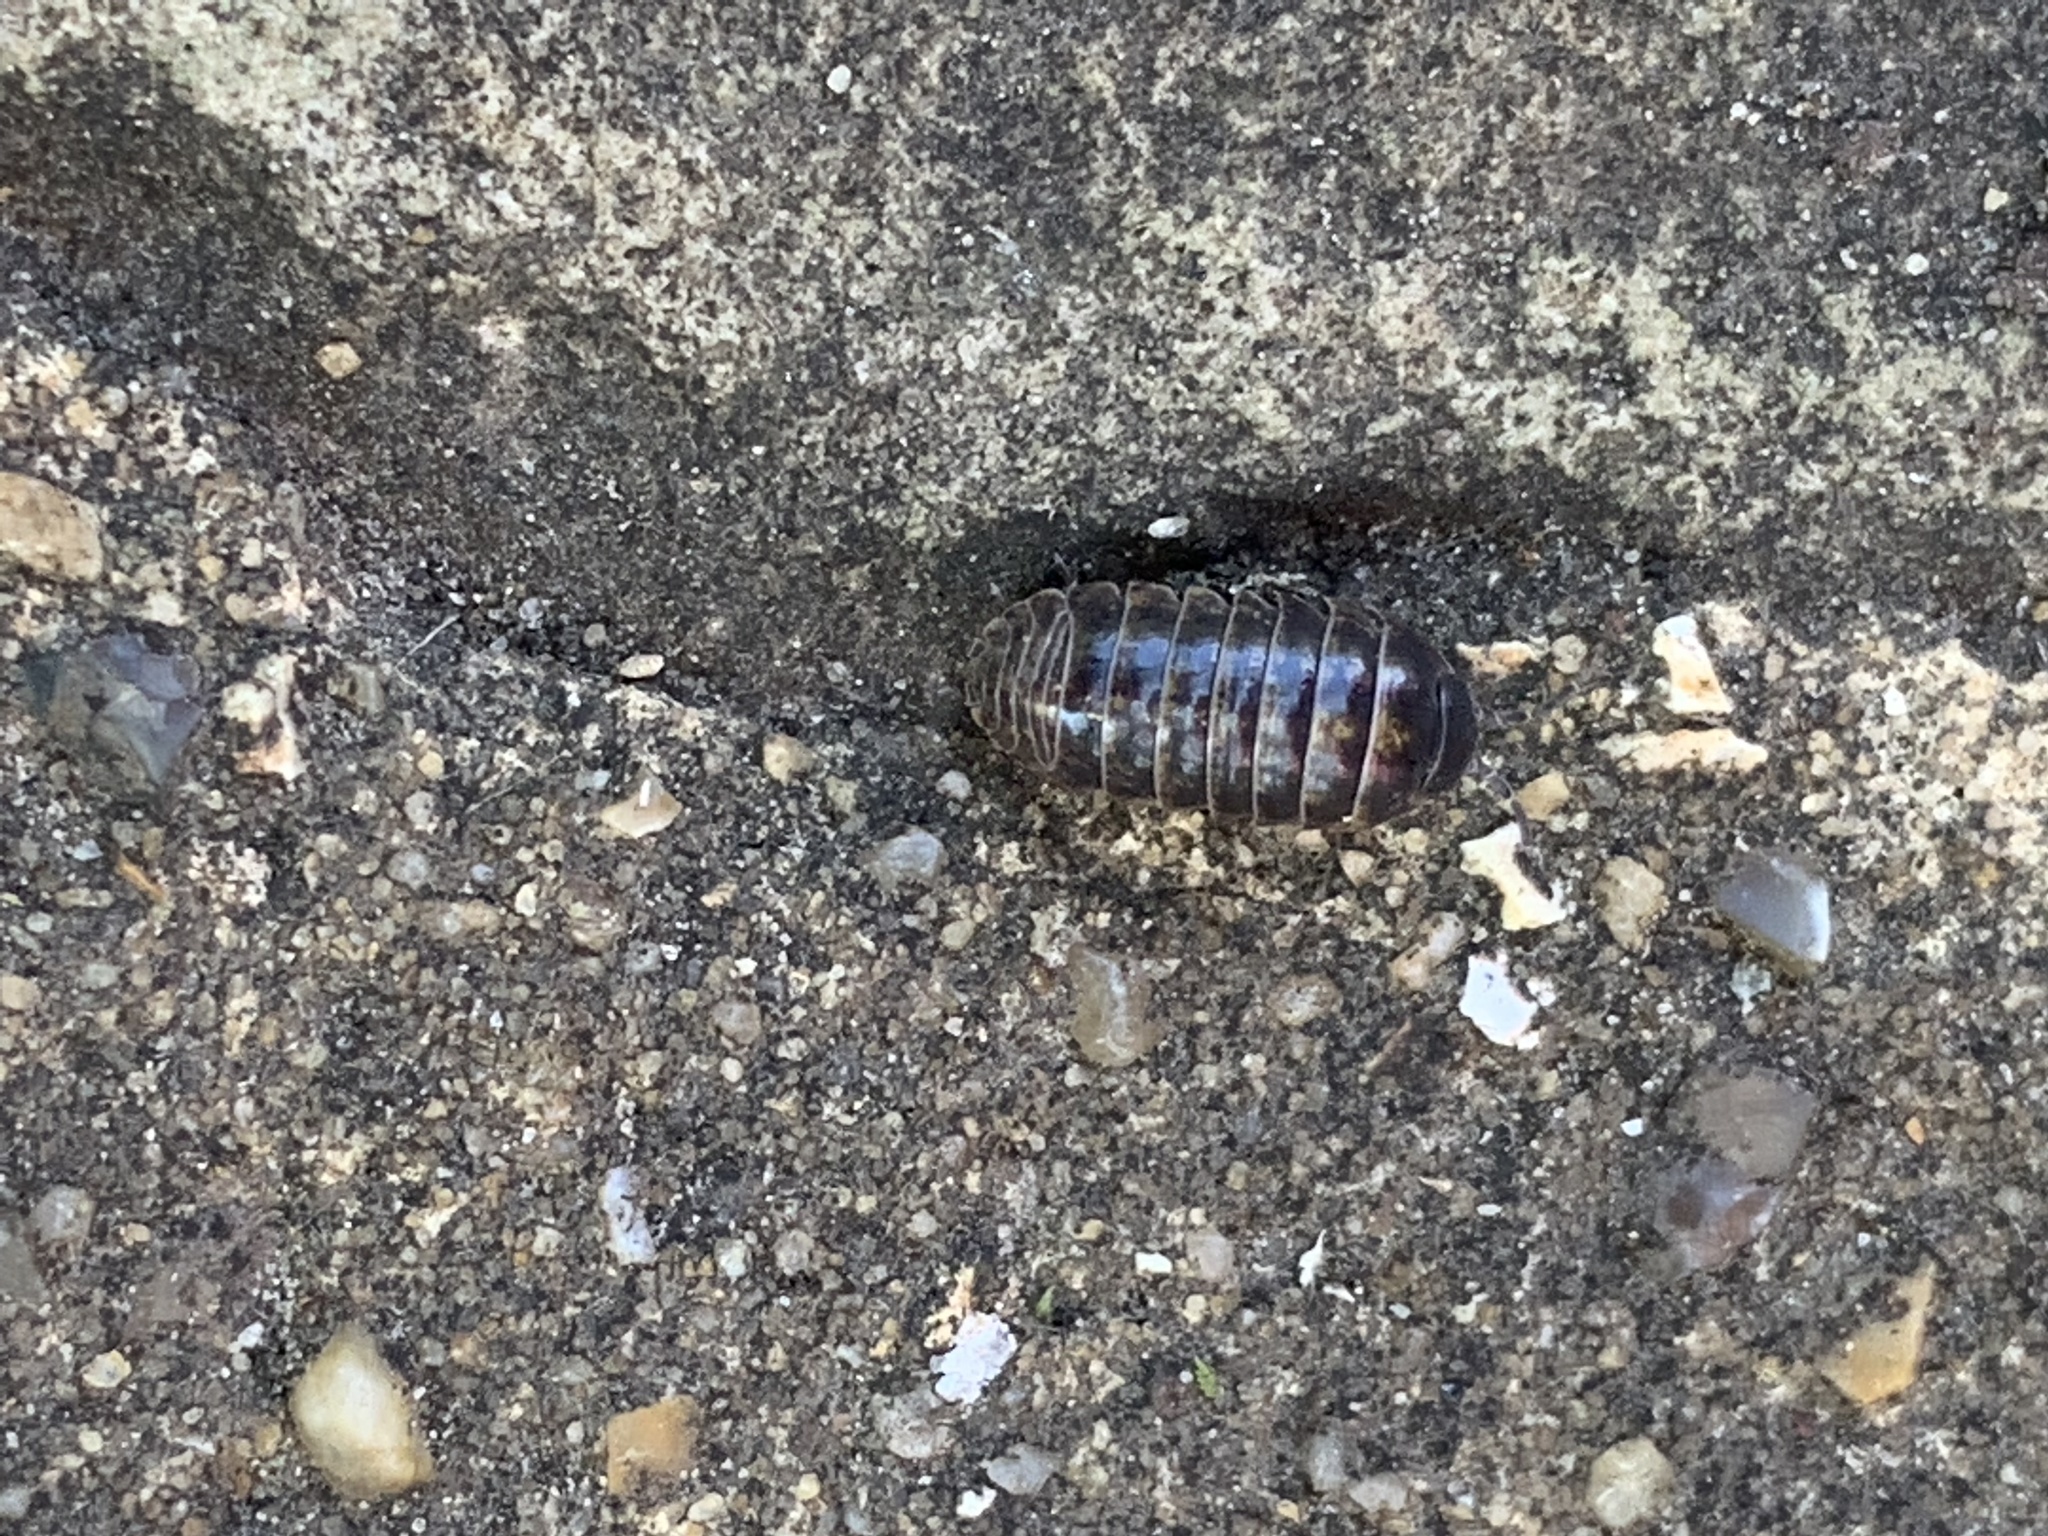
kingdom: Animalia
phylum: Arthropoda
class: Malacostraca
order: Isopoda
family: Armadillidiidae
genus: Armadillidium
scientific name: Armadillidium vulgare
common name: Common pill woodlouse
